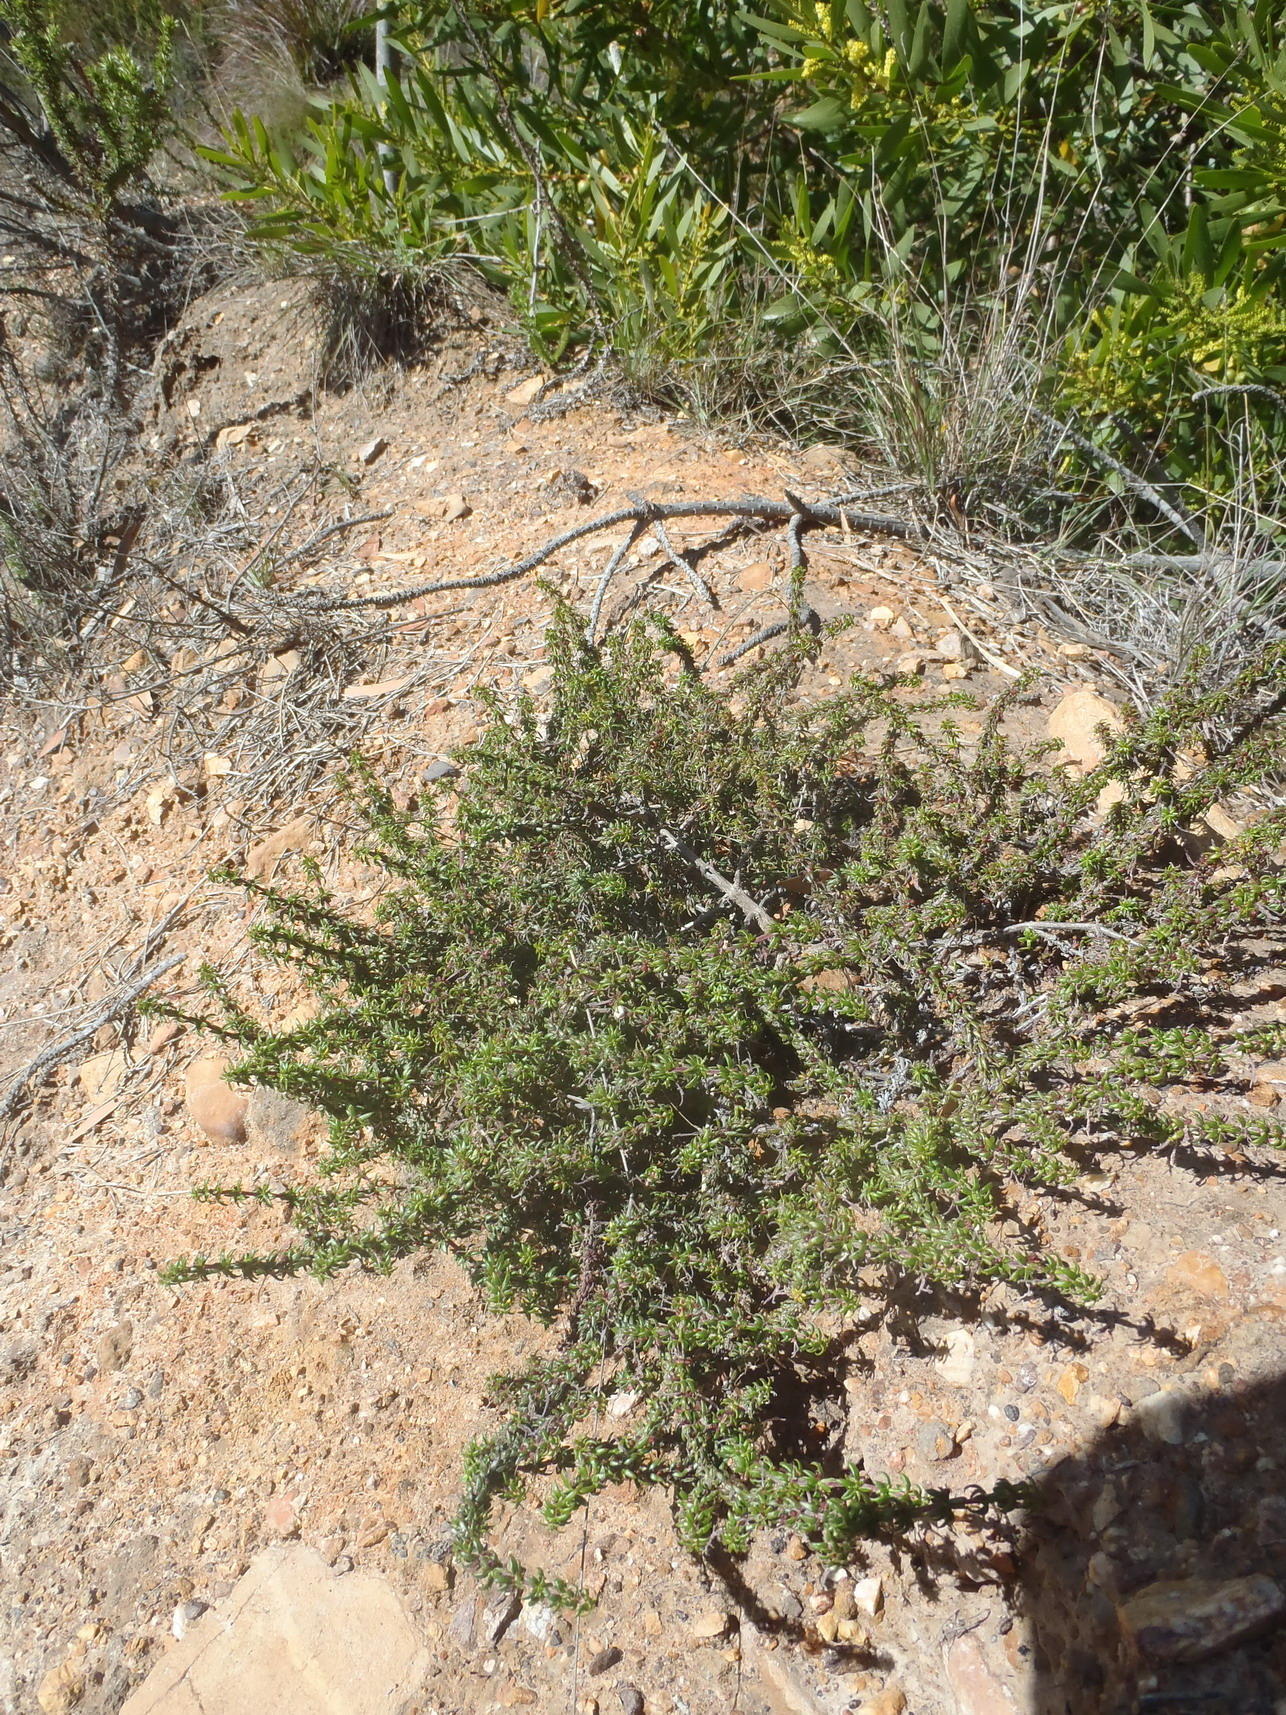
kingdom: Plantae
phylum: Tracheophyta
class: Magnoliopsida
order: Gentianales
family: Rubiaceae
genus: Anthospermum
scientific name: Anthospermum galioides
